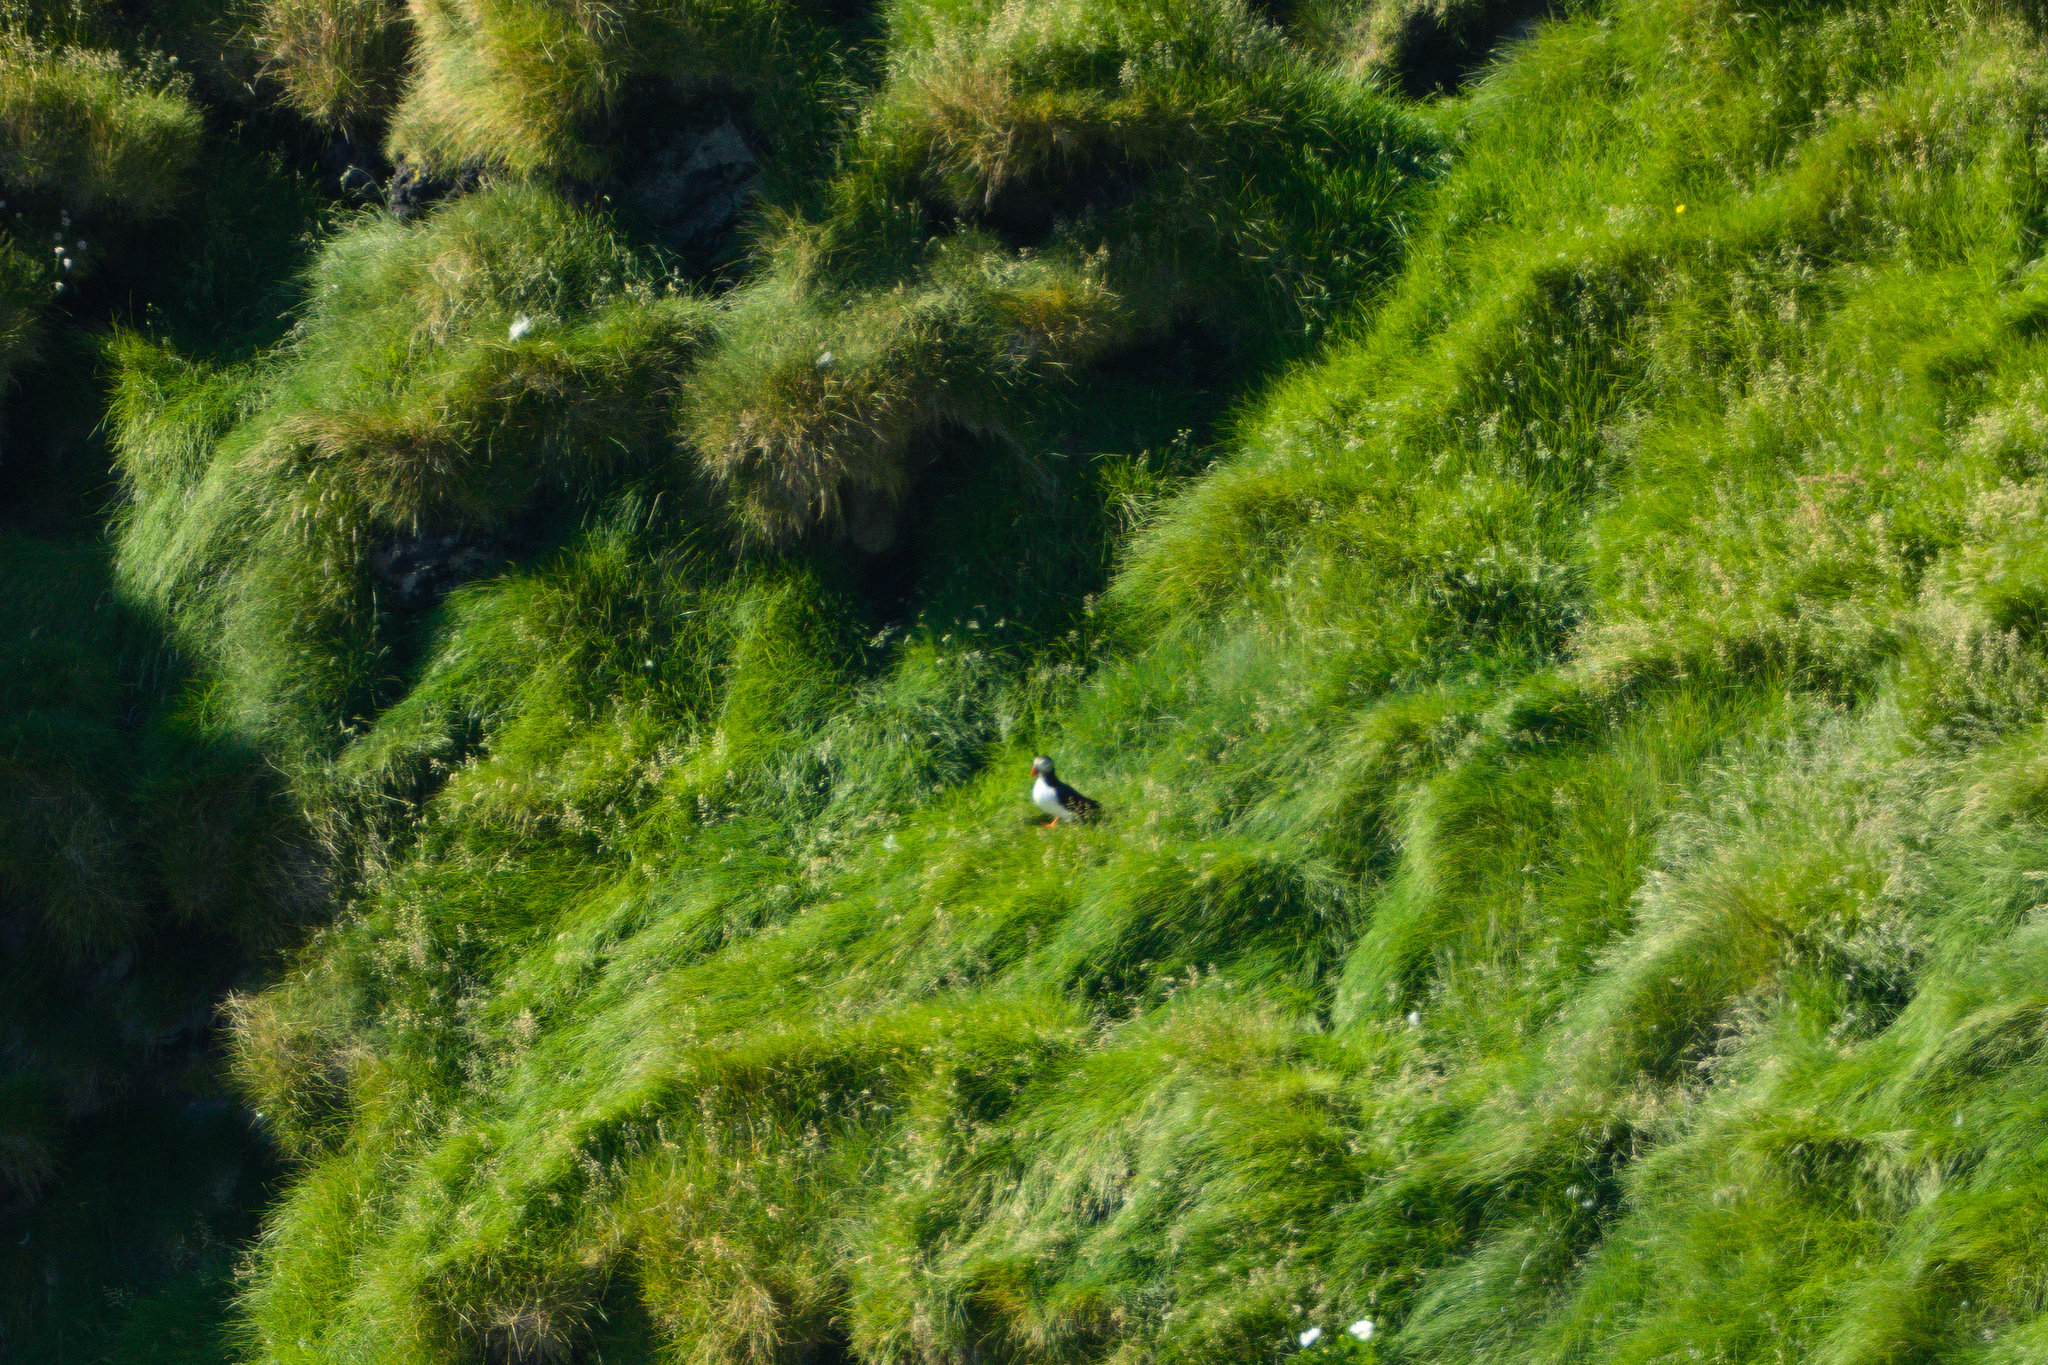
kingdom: Animalia
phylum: Chordata
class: Aves
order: Charadriiformes
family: Alcidae
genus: Fratercula
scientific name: Fratercula arctica
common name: Atlantic puffin
